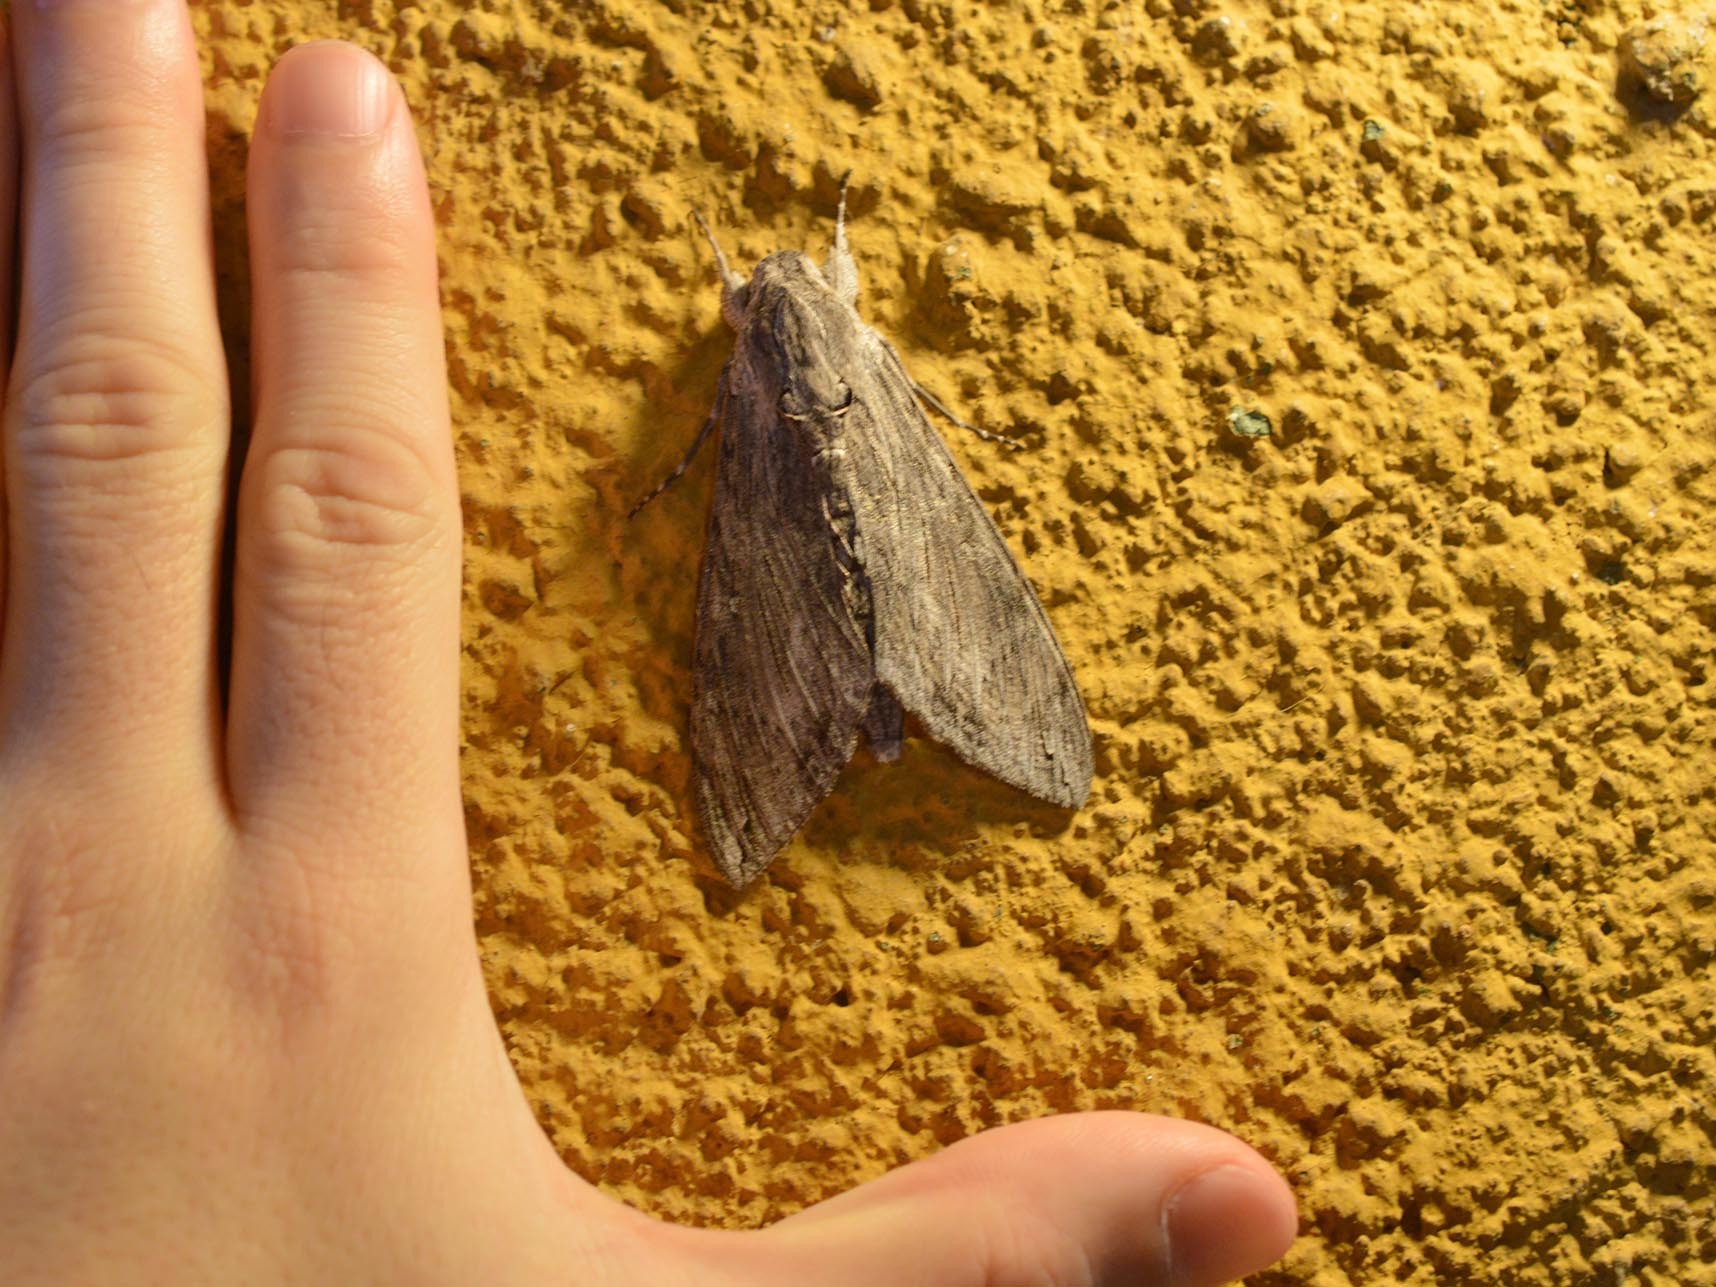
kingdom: Animalia
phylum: Arthropoda
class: Insecta
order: Lepidoptera
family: Sphingidae
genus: Agrius
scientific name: Agrius convolvuli
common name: Convolvulus hawkmoth
